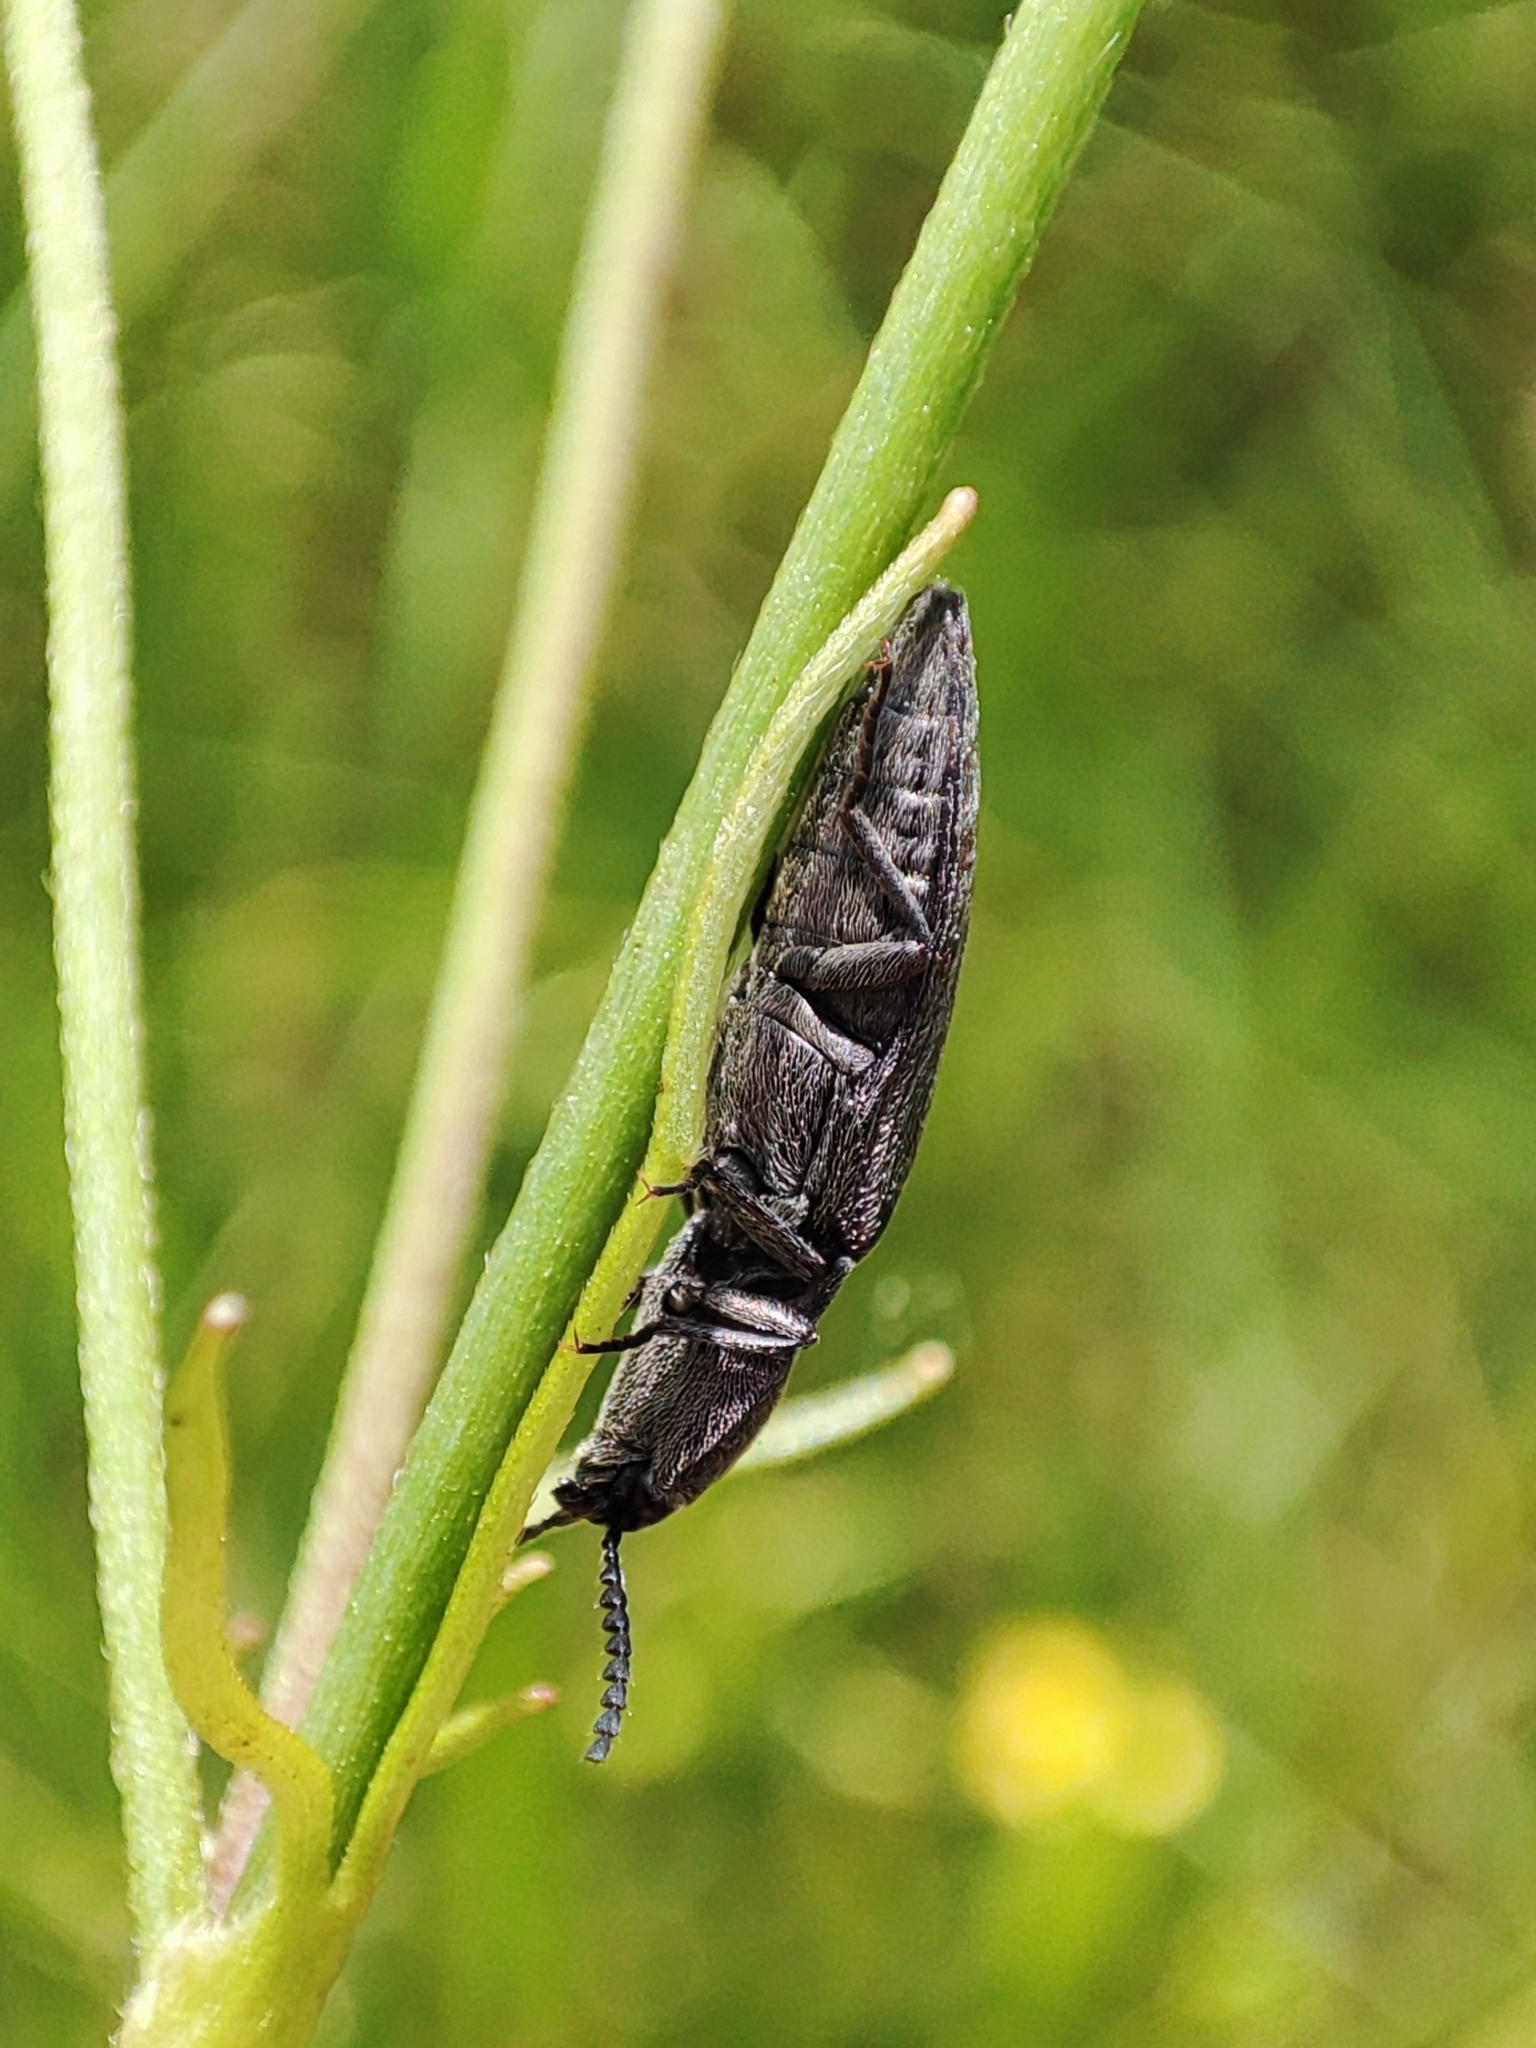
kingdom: Animalia
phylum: Arthropoda
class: Insecta
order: Coleoptera
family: Elateridae
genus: Actenicerus
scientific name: Actenicerus sjaelandicus
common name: Marsh click beetle
